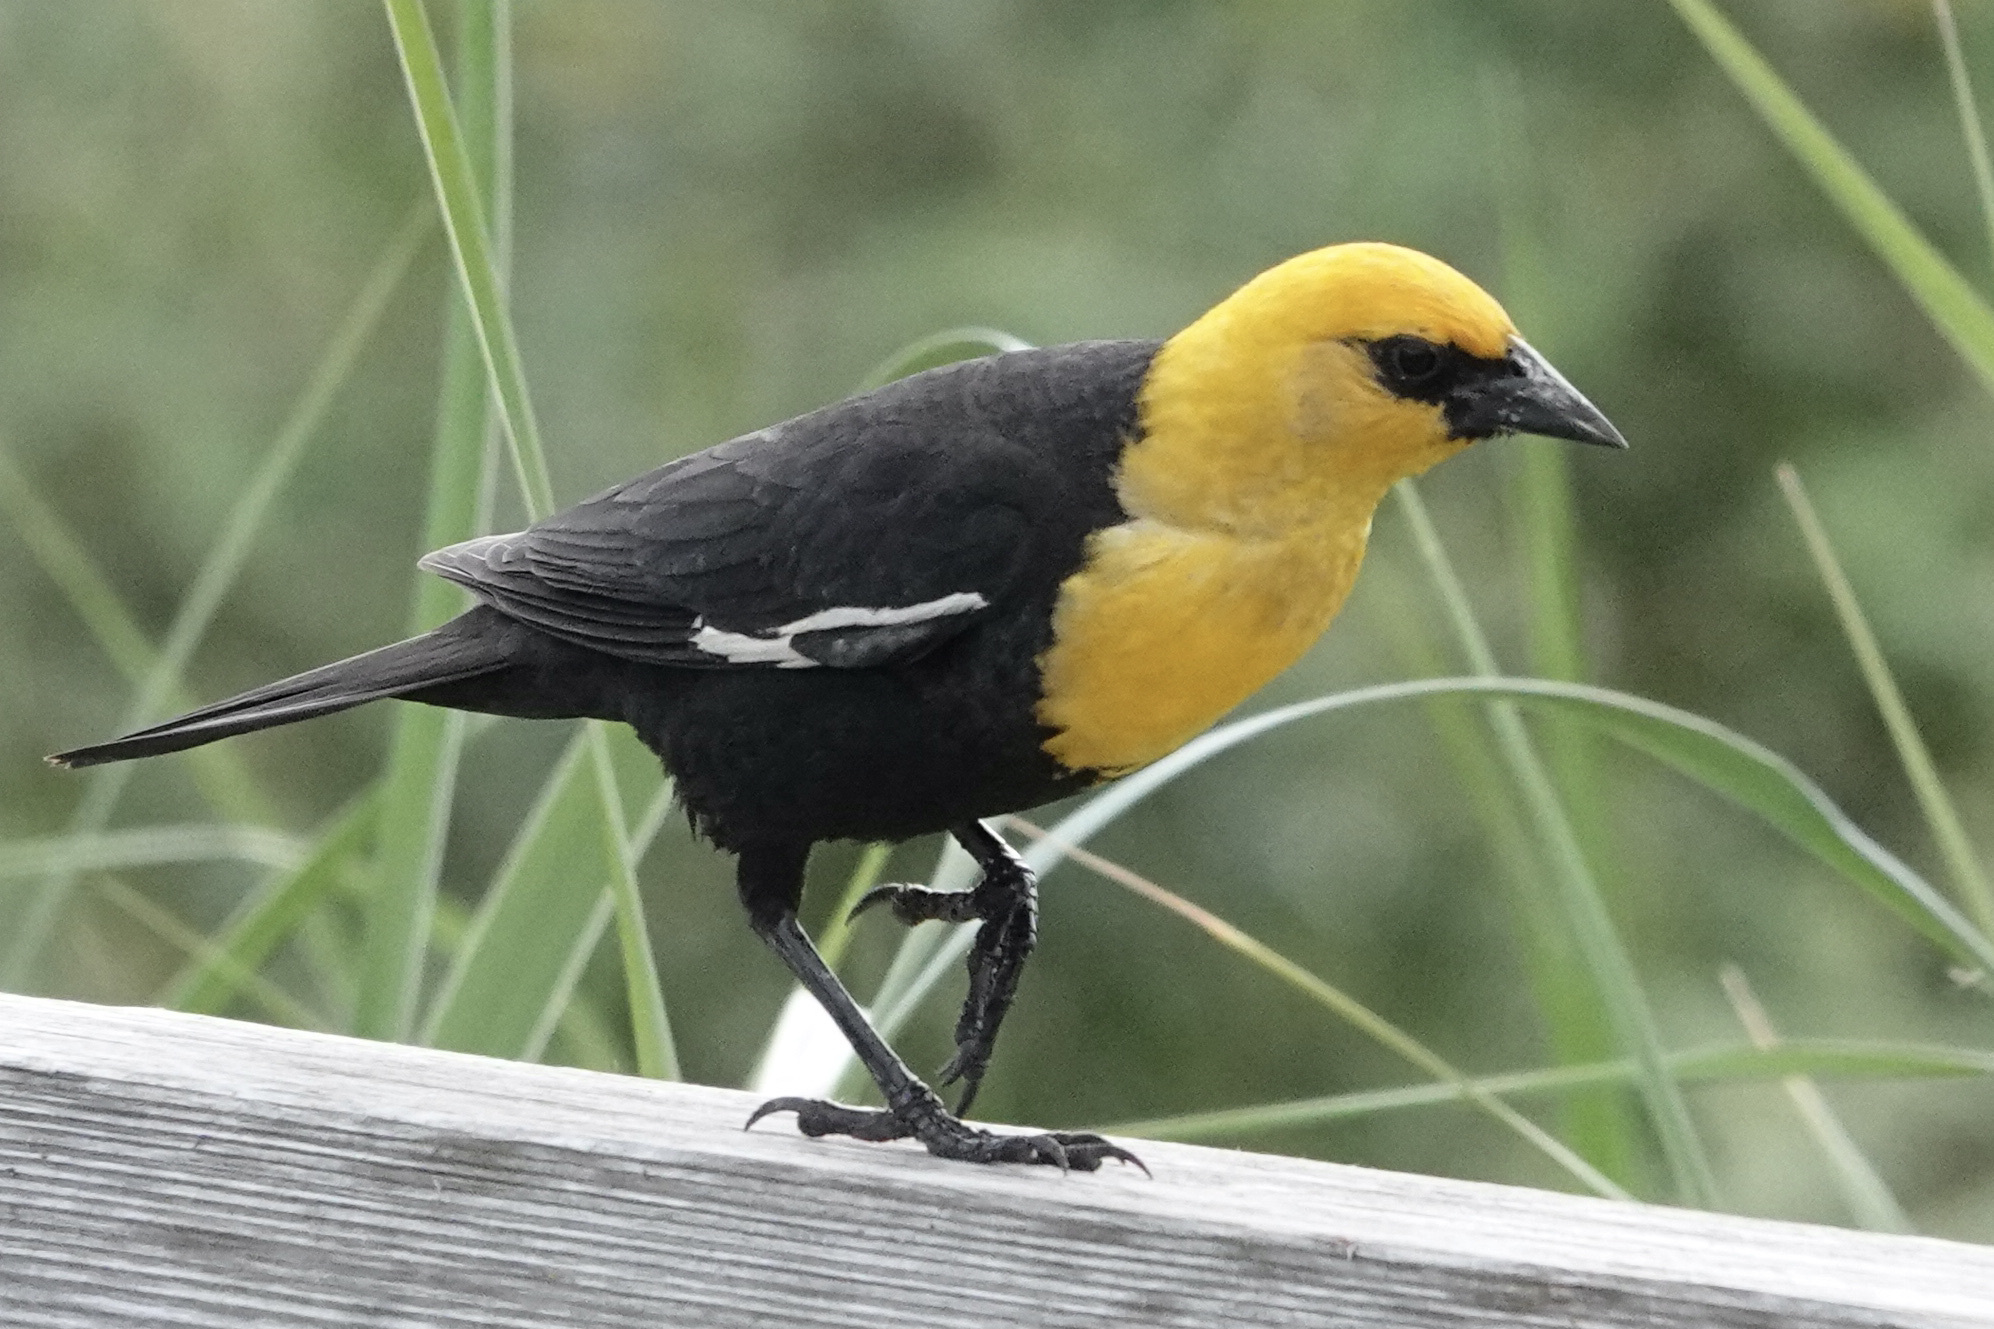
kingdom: Animalia
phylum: Chordata
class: Aves
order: Passeriformes
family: Icteridae
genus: Xanthocephalus
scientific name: Xanthocephalus xanthocephalus
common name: Yellow-headed blackbird
